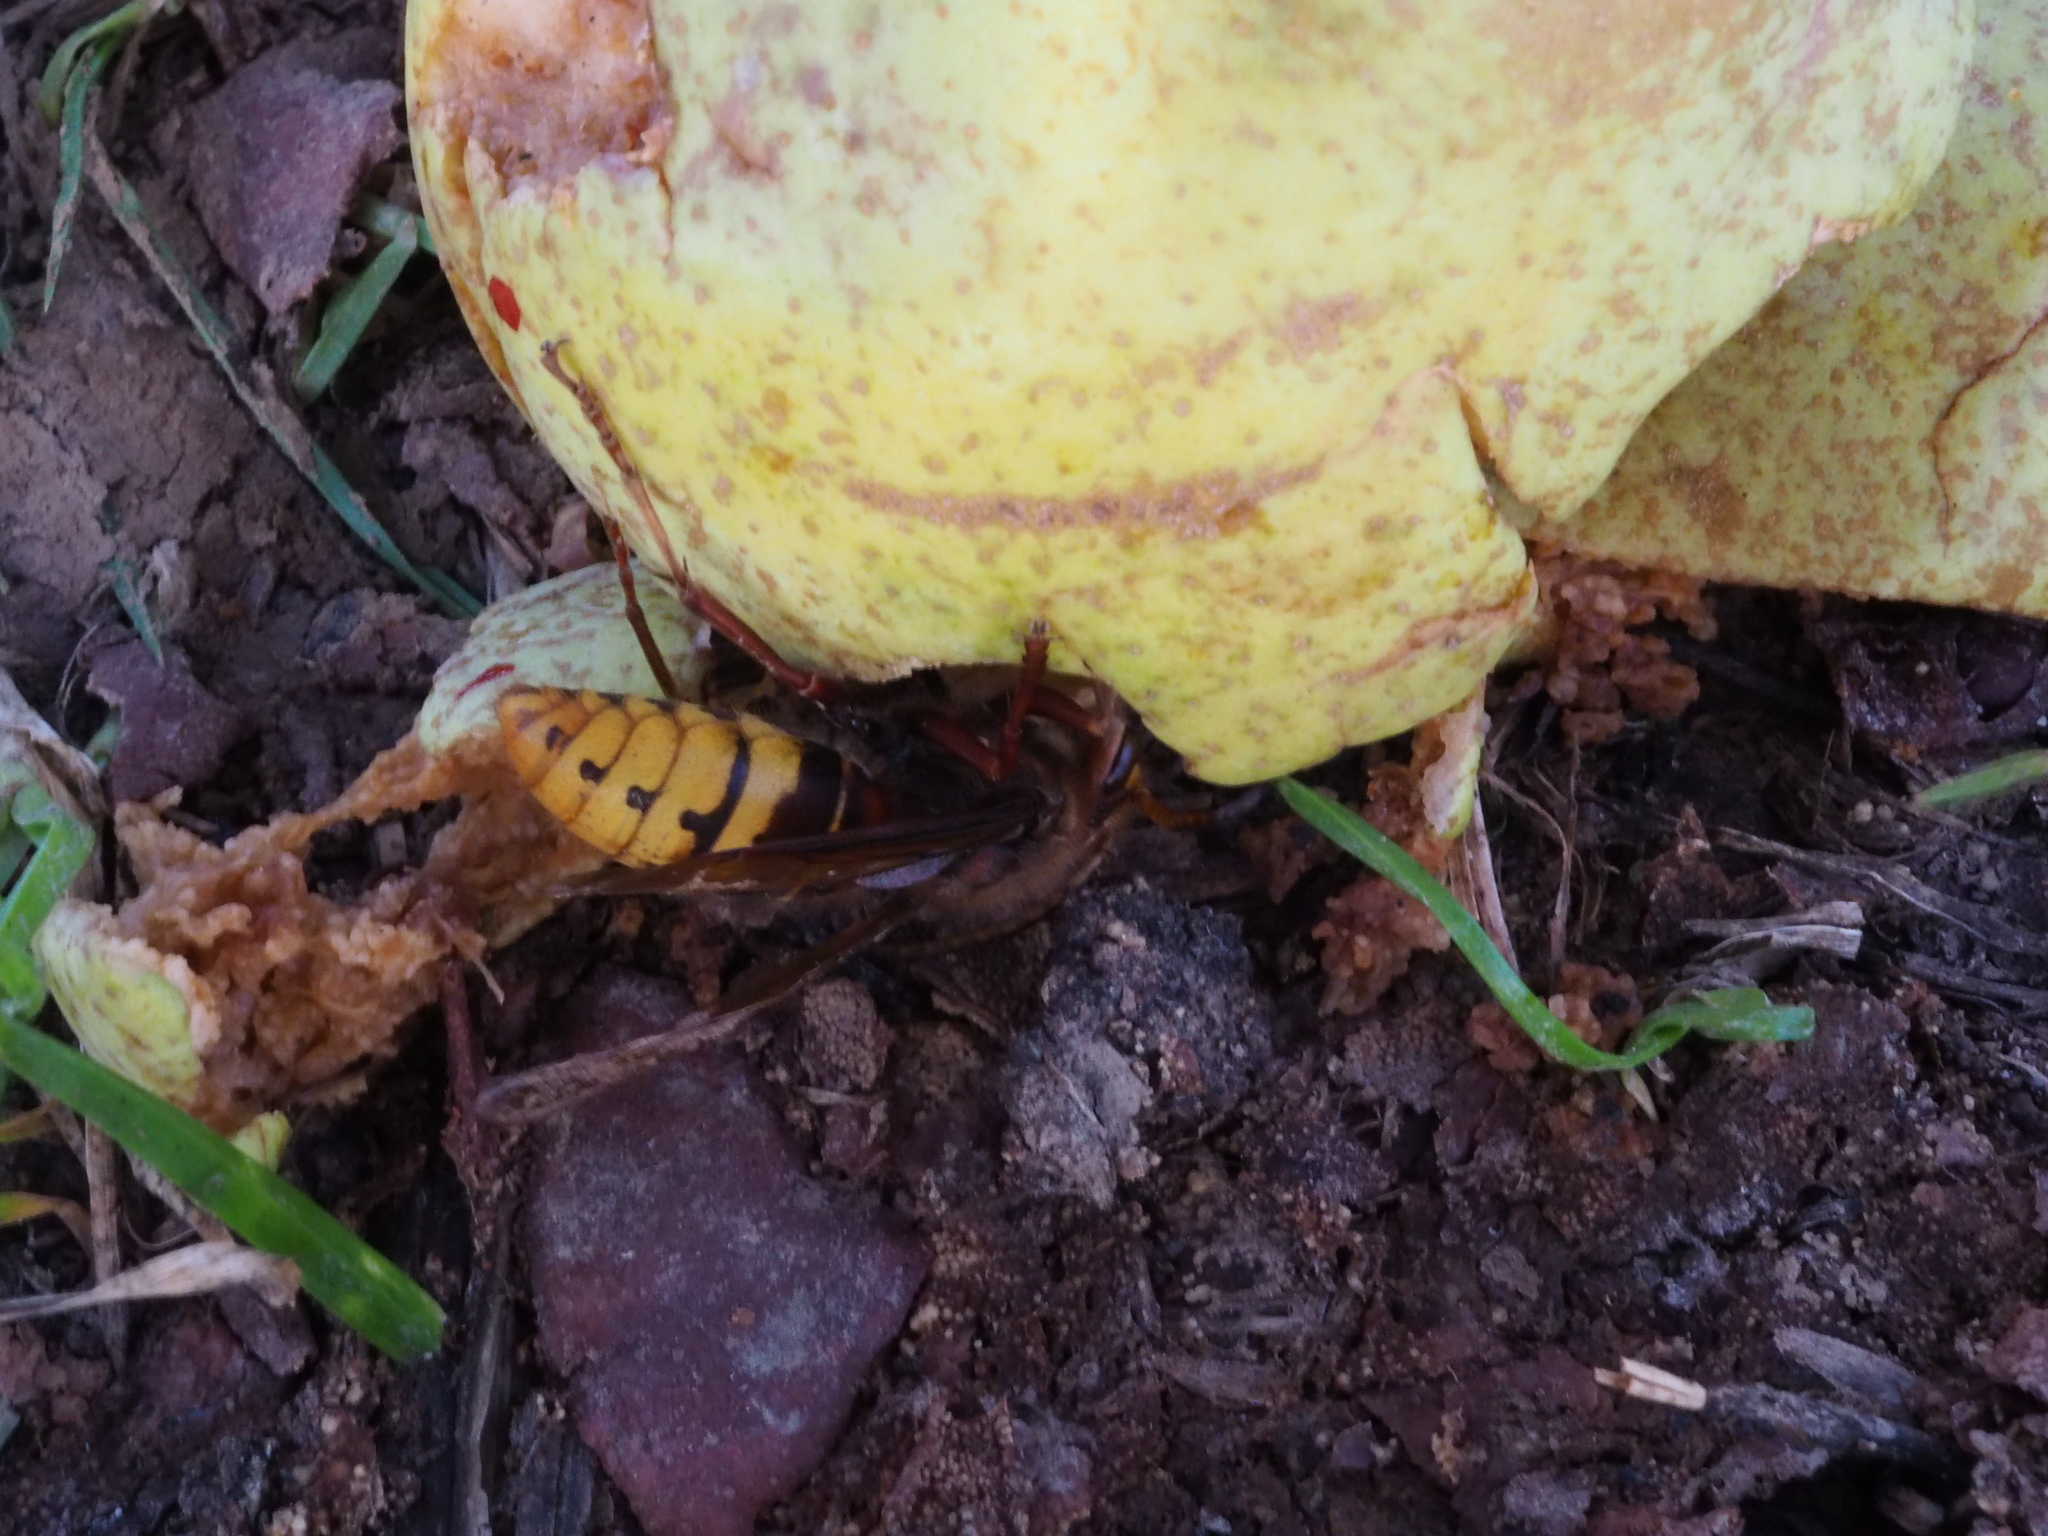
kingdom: Animalia
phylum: Arthropoda
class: Insecta
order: Hymenoptera
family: Vespidae
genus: Vespa
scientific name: Vespa crabro
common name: Hornet
